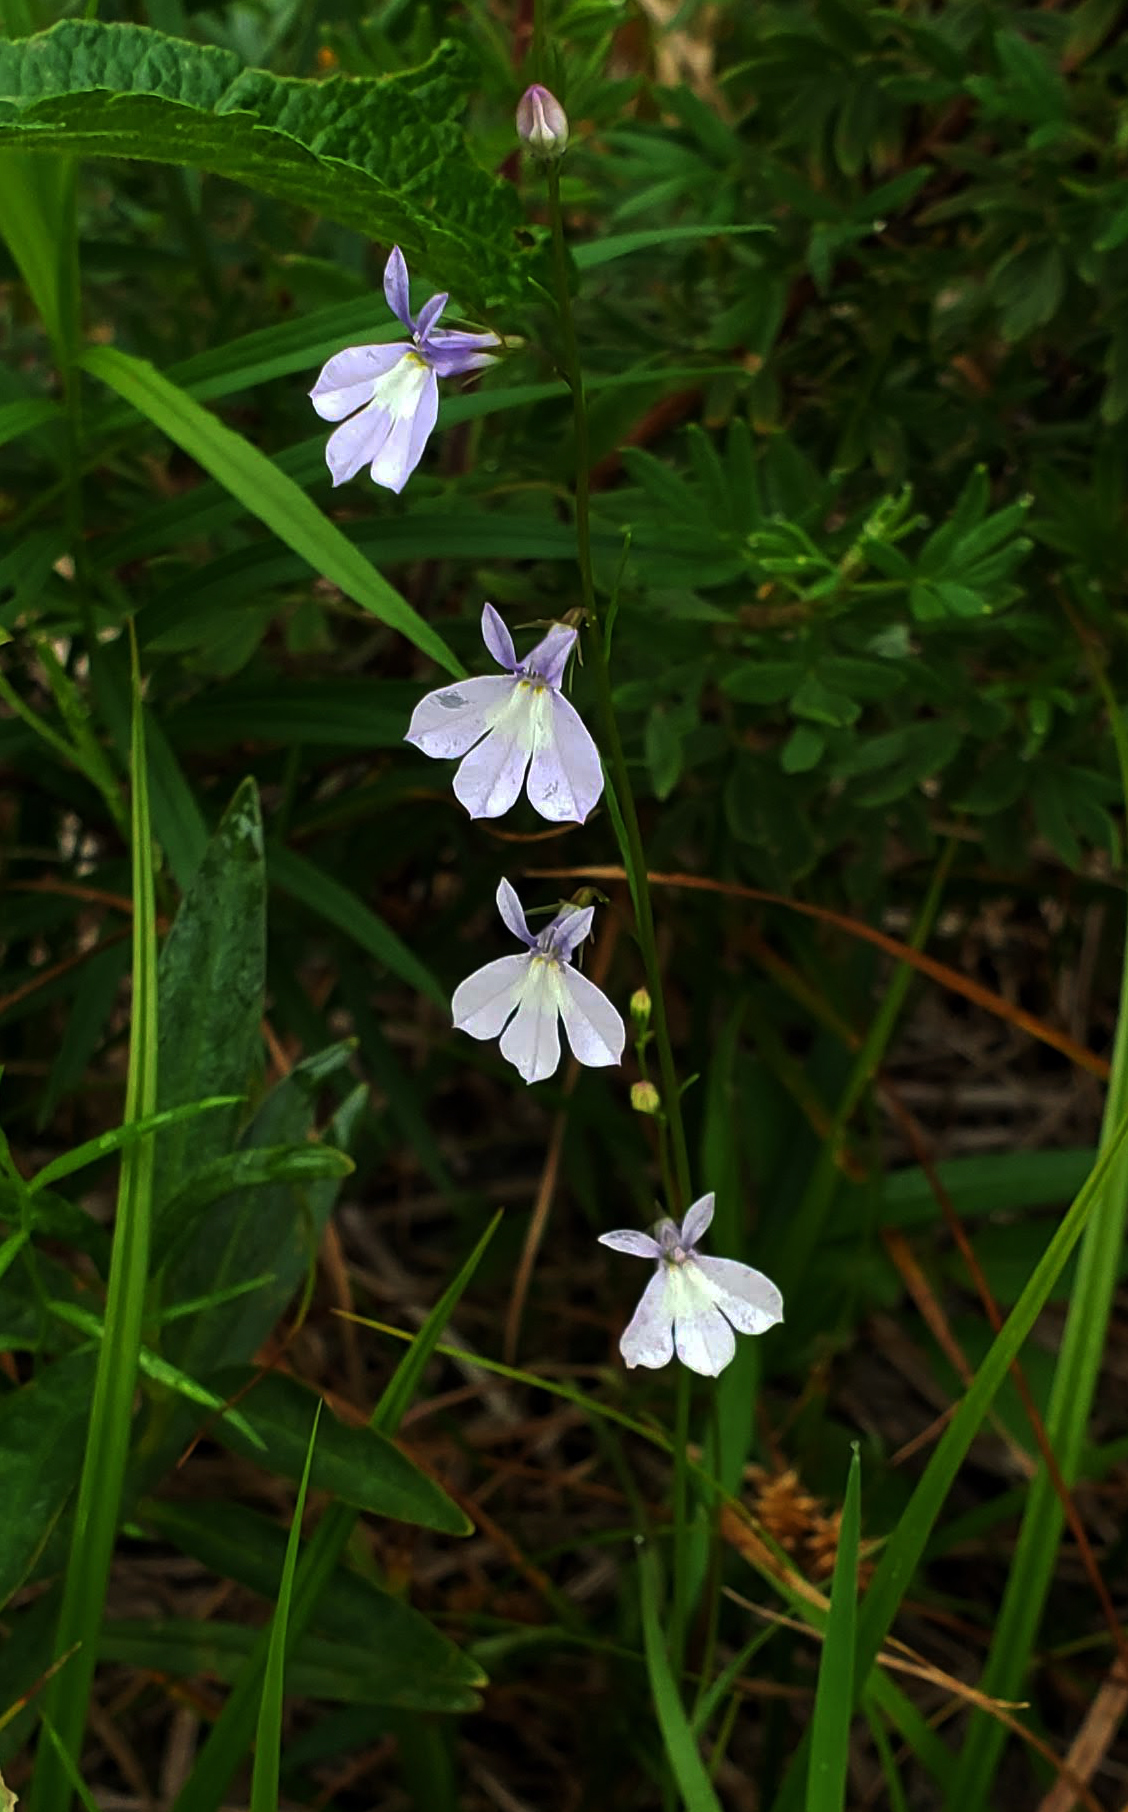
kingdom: Plantae
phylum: Tracheophyta
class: Magnoliopsida
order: Asterales
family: Campanulaceae
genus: Lobelia
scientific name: Lobelia kalmii
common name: Kalm's lobelia
